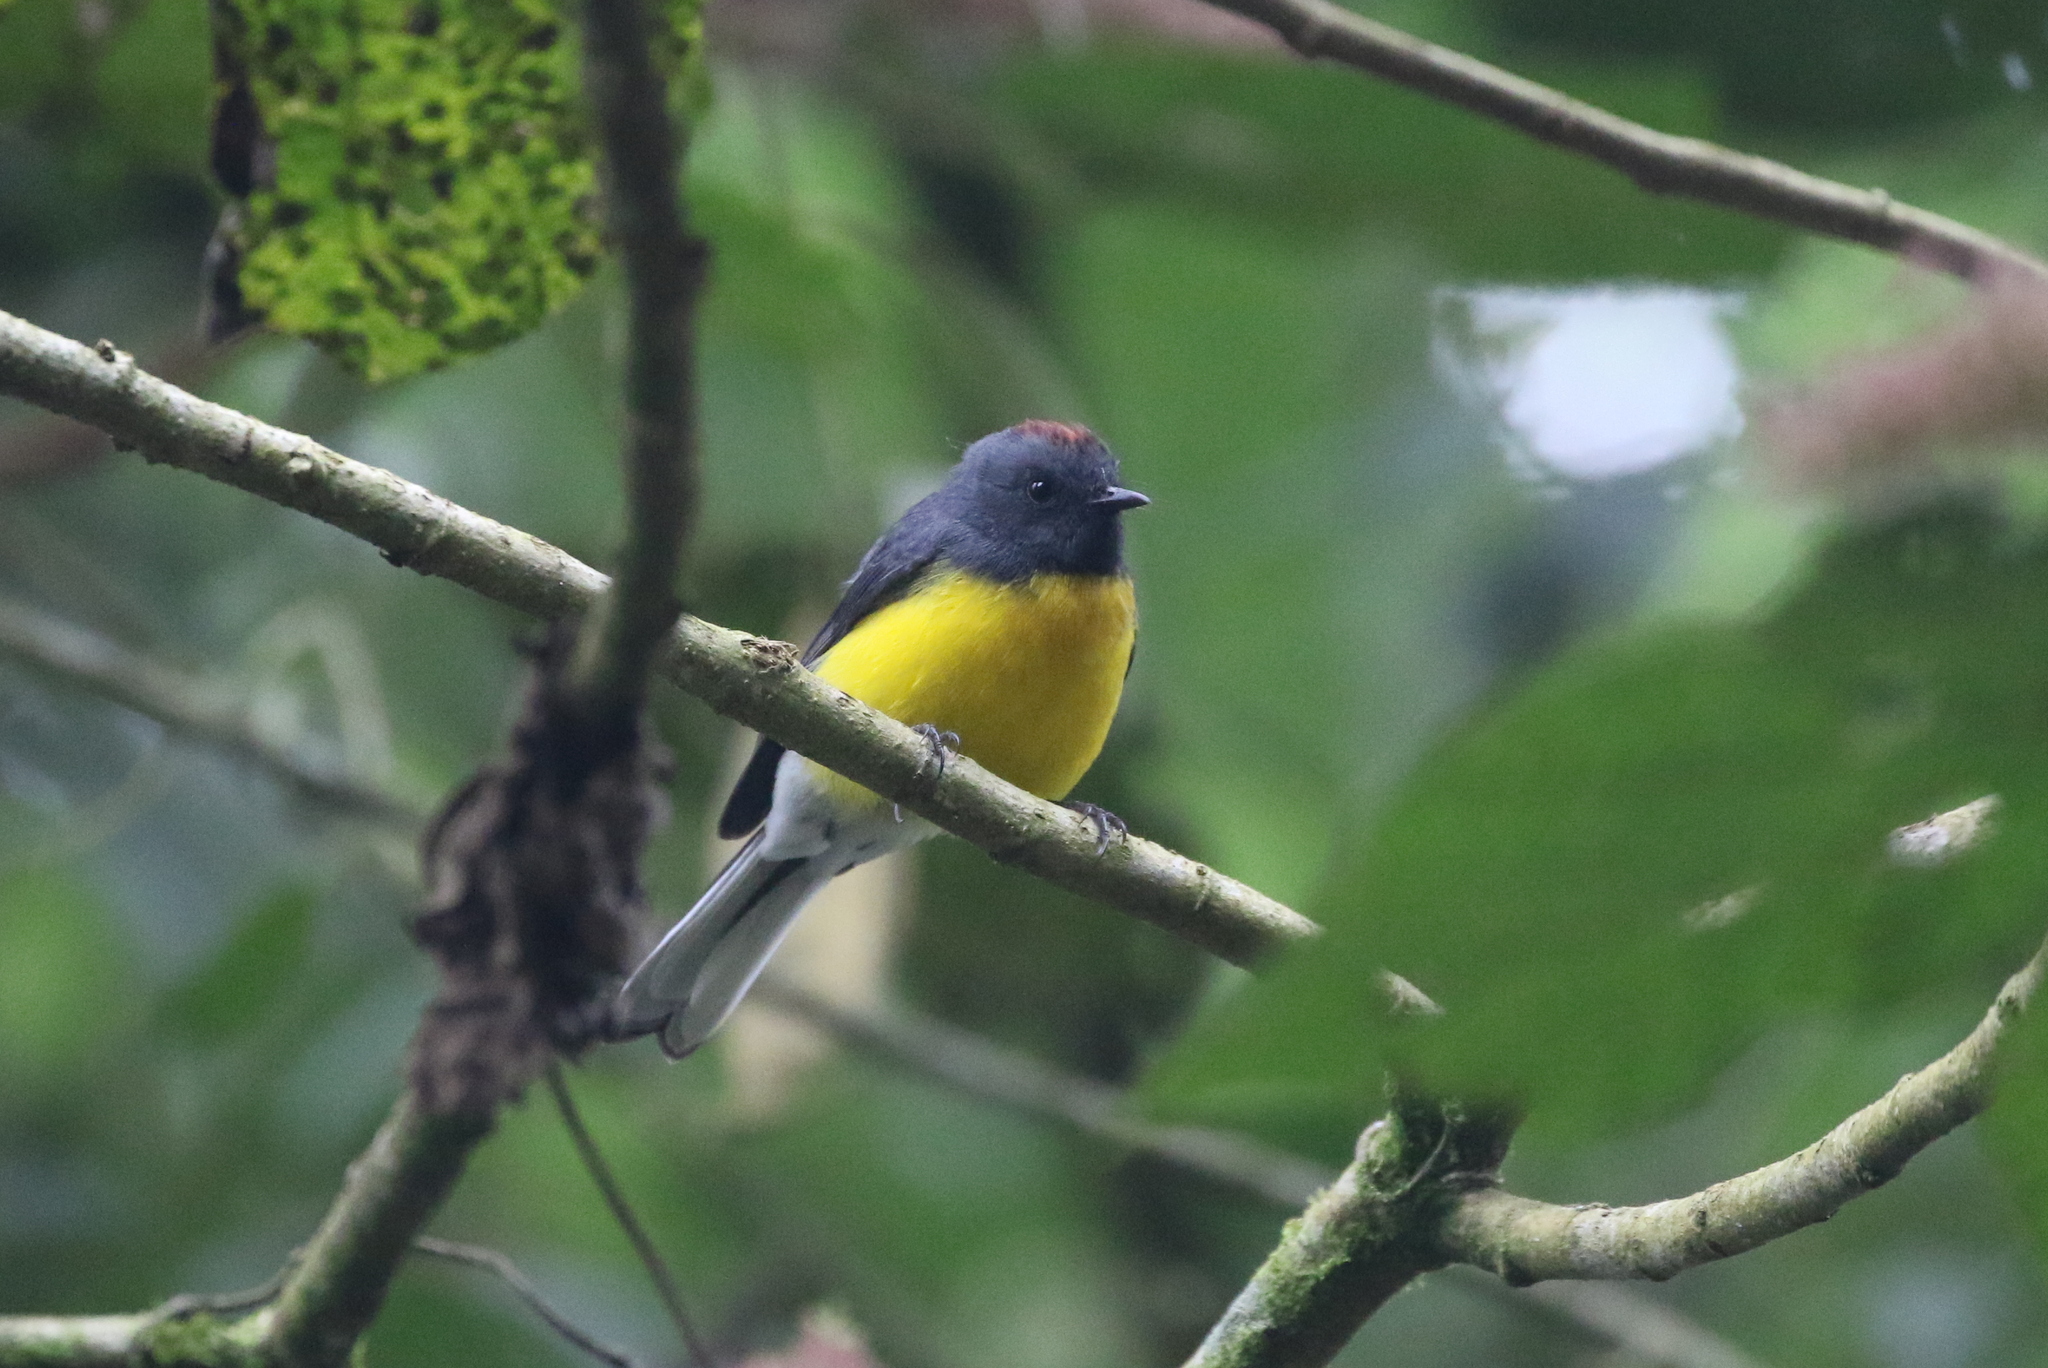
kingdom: Animalia
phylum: Chordata
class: Aves
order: Passeriformes
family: Parulidae
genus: Myioborus
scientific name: Myioborus miniatus
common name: Slate-throated redstart
